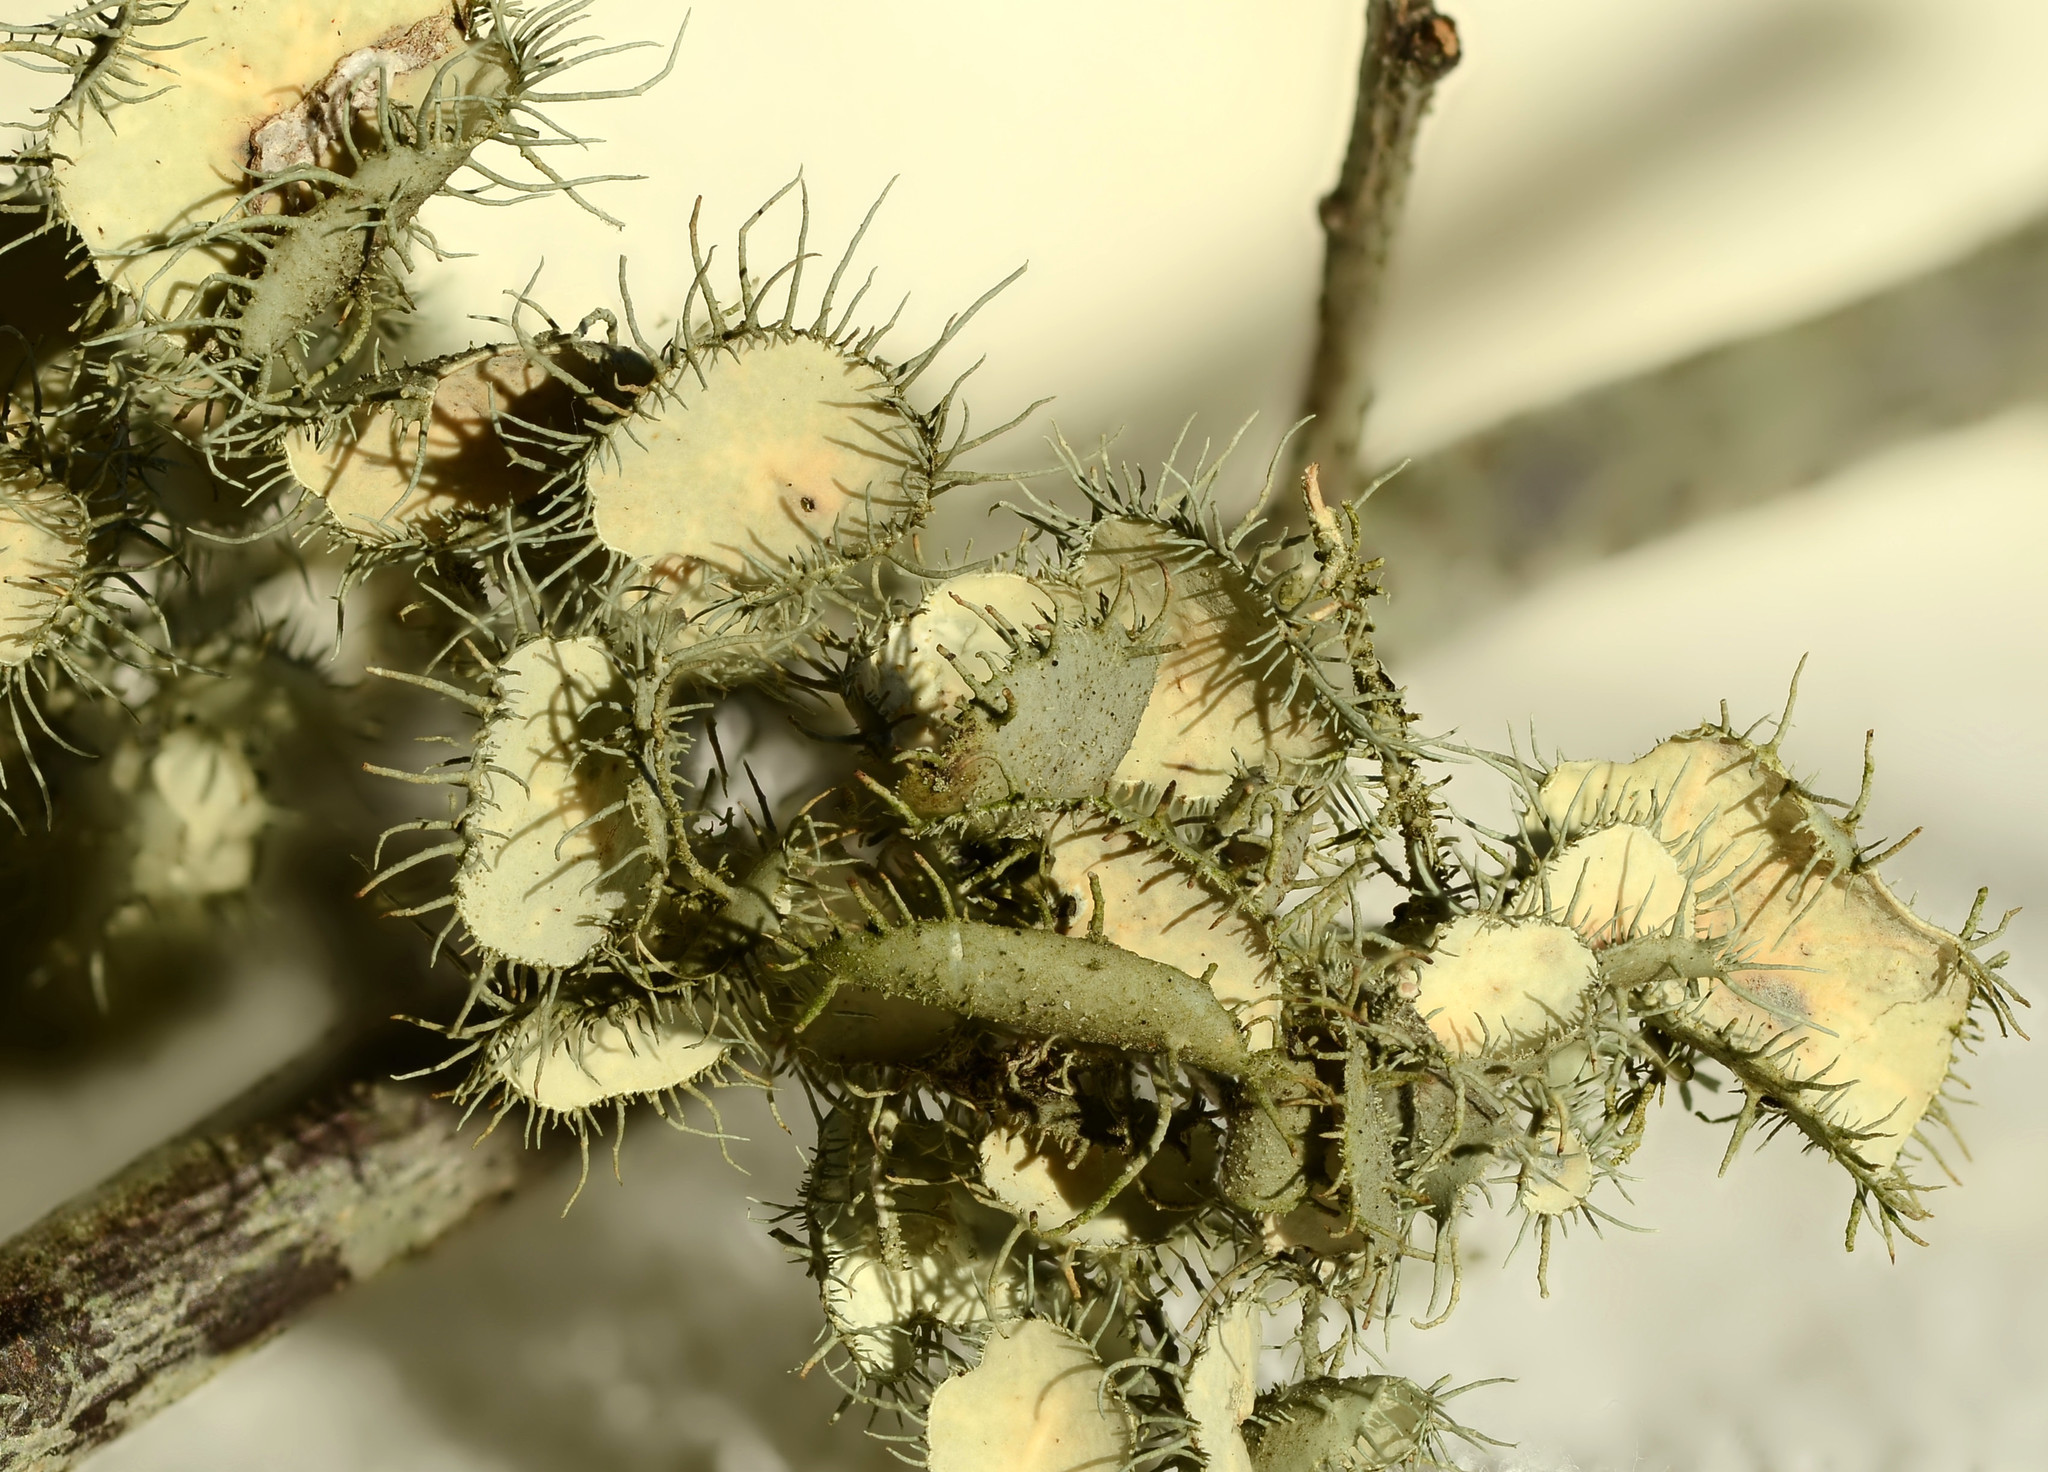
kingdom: Fungi
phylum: Ascomycota
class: Lecanoromycetes
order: Lecanorales
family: Parmeliaceae
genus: Usnea
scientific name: Usnea intermedia
